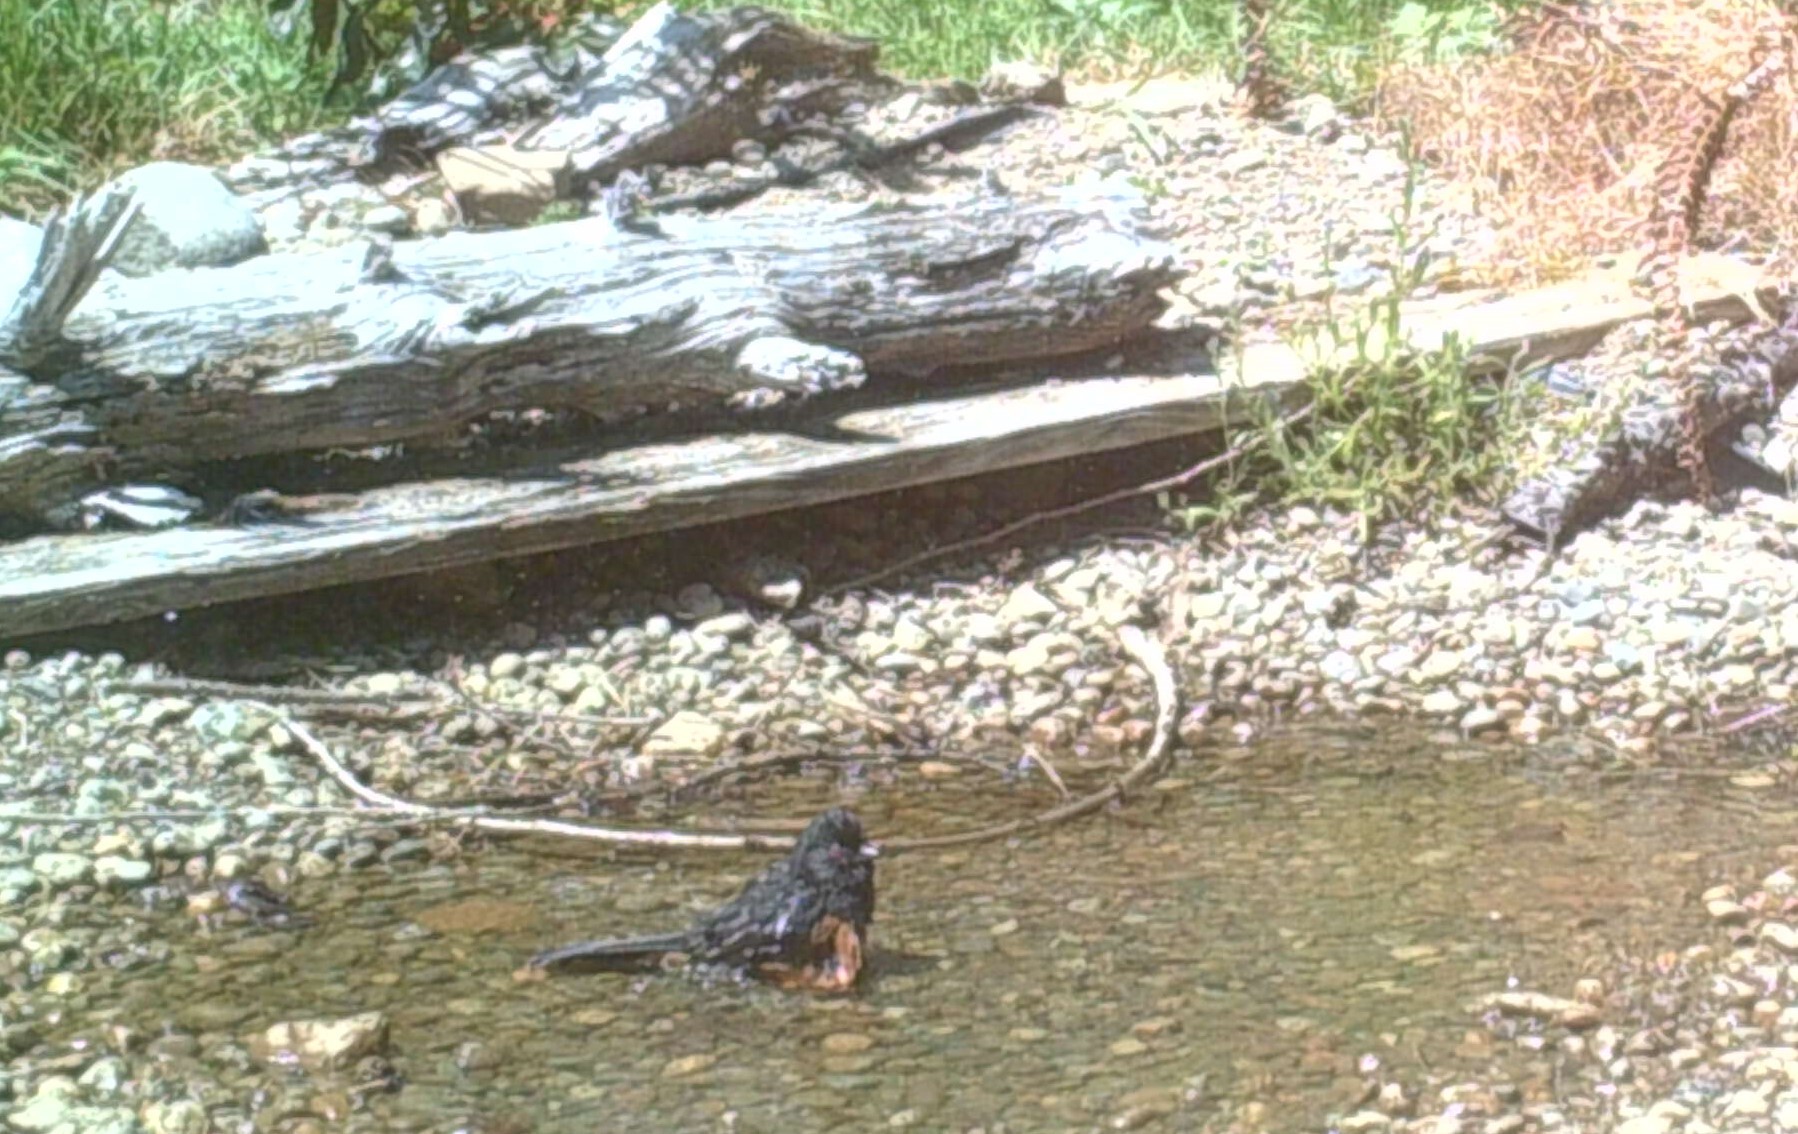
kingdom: Animalia
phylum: Chordata
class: Aves
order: Passeriformes
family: Passerellidae
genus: Pipilo
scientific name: Pipilo maculatus
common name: Spotted towhee
